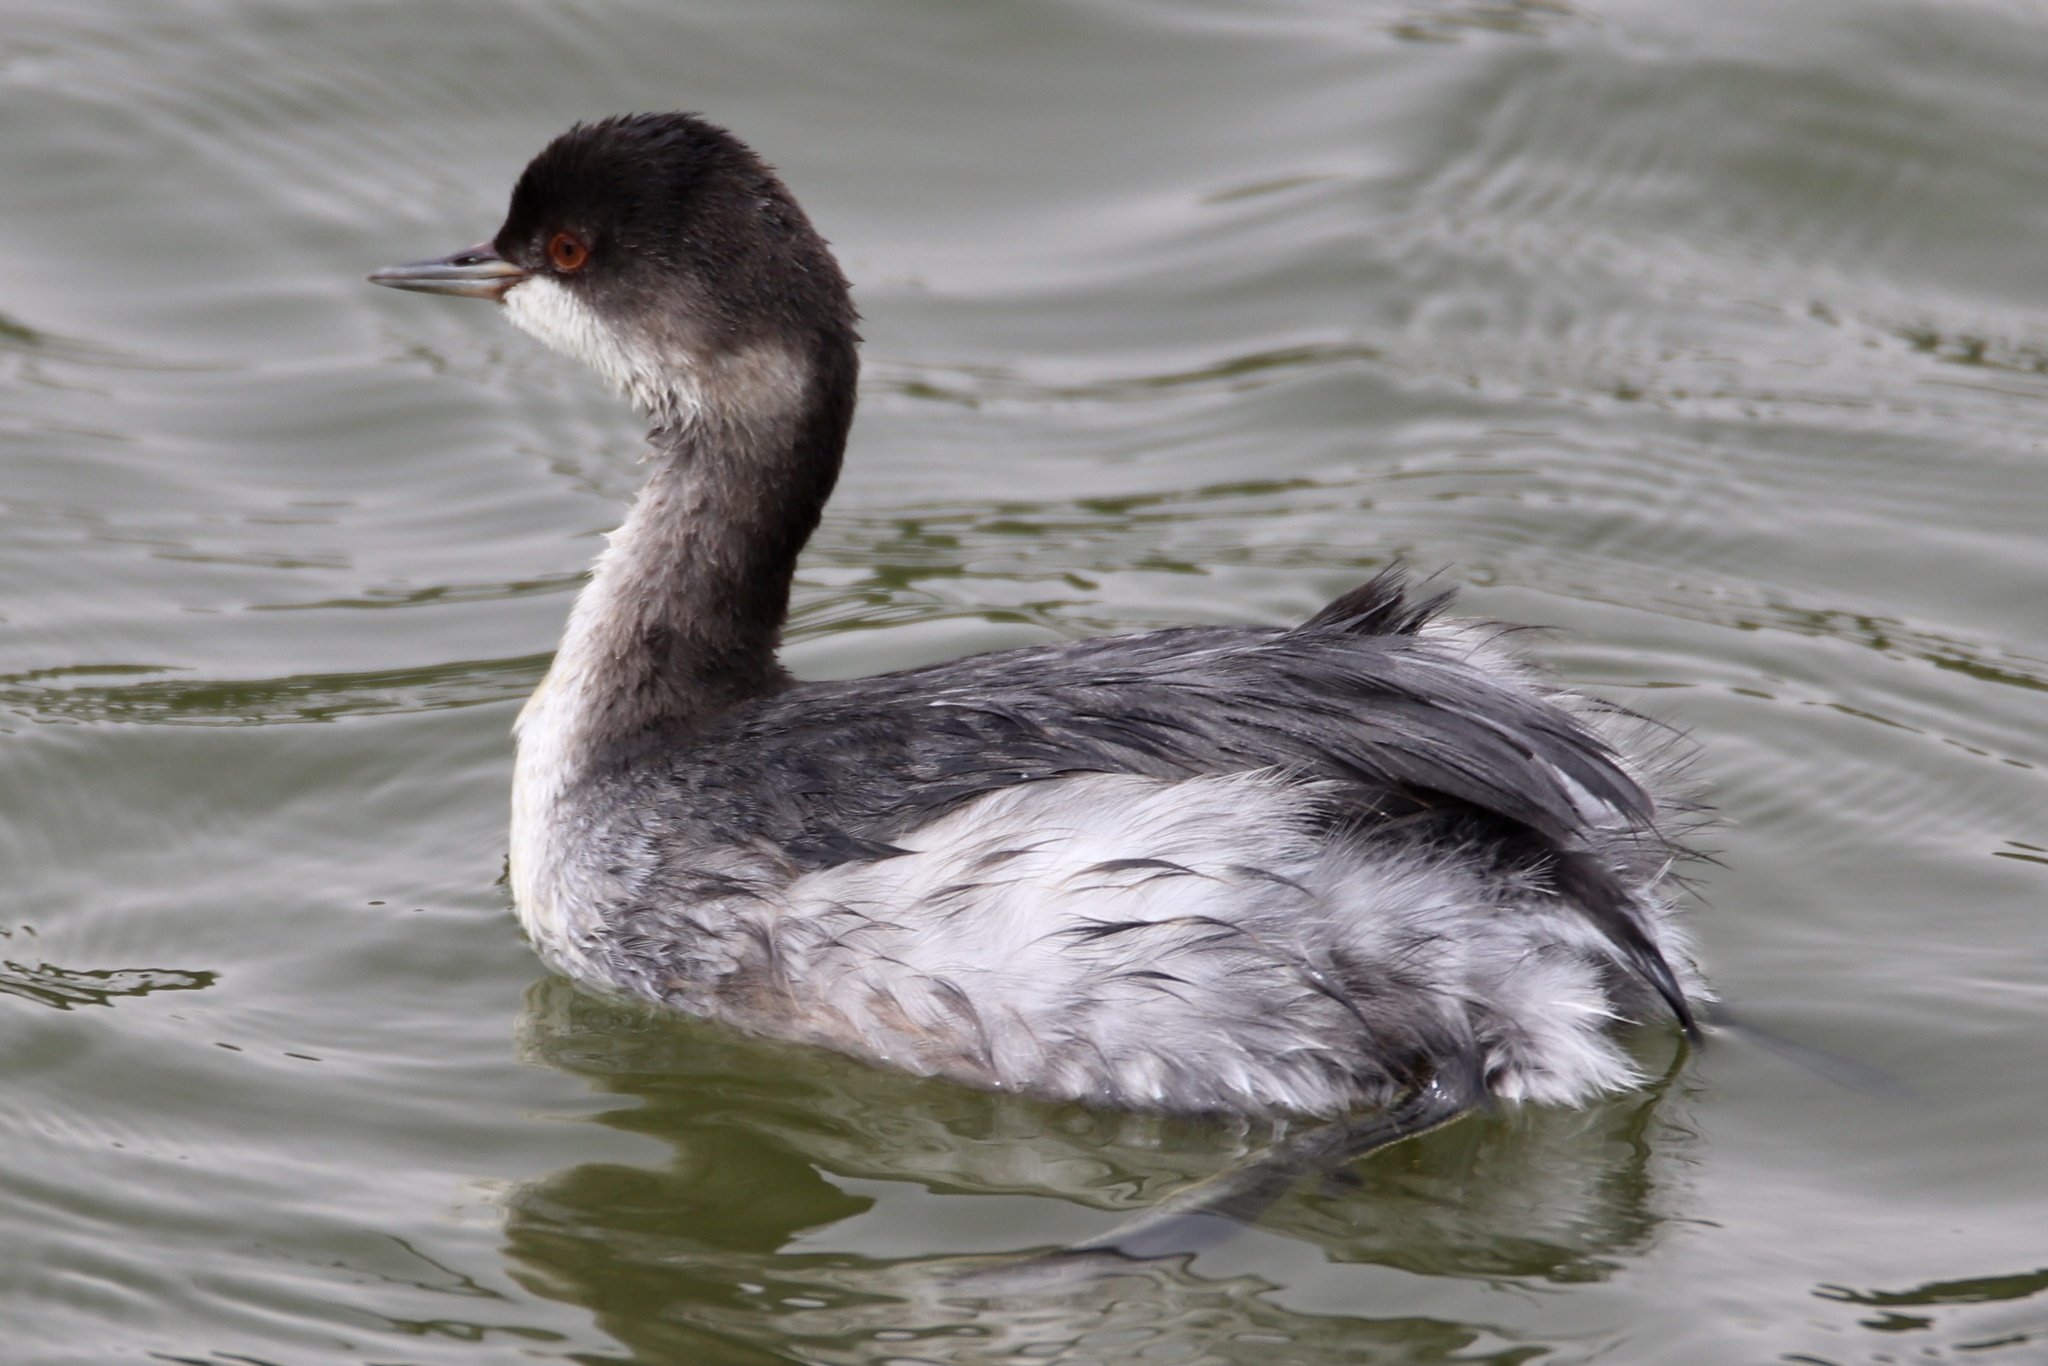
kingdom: Animalia
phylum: Chordata
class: Aves
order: Podicipediformes
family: Podicipedidae
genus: Podiceps
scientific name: Podiceps nigricollis
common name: Black-necked grebe
